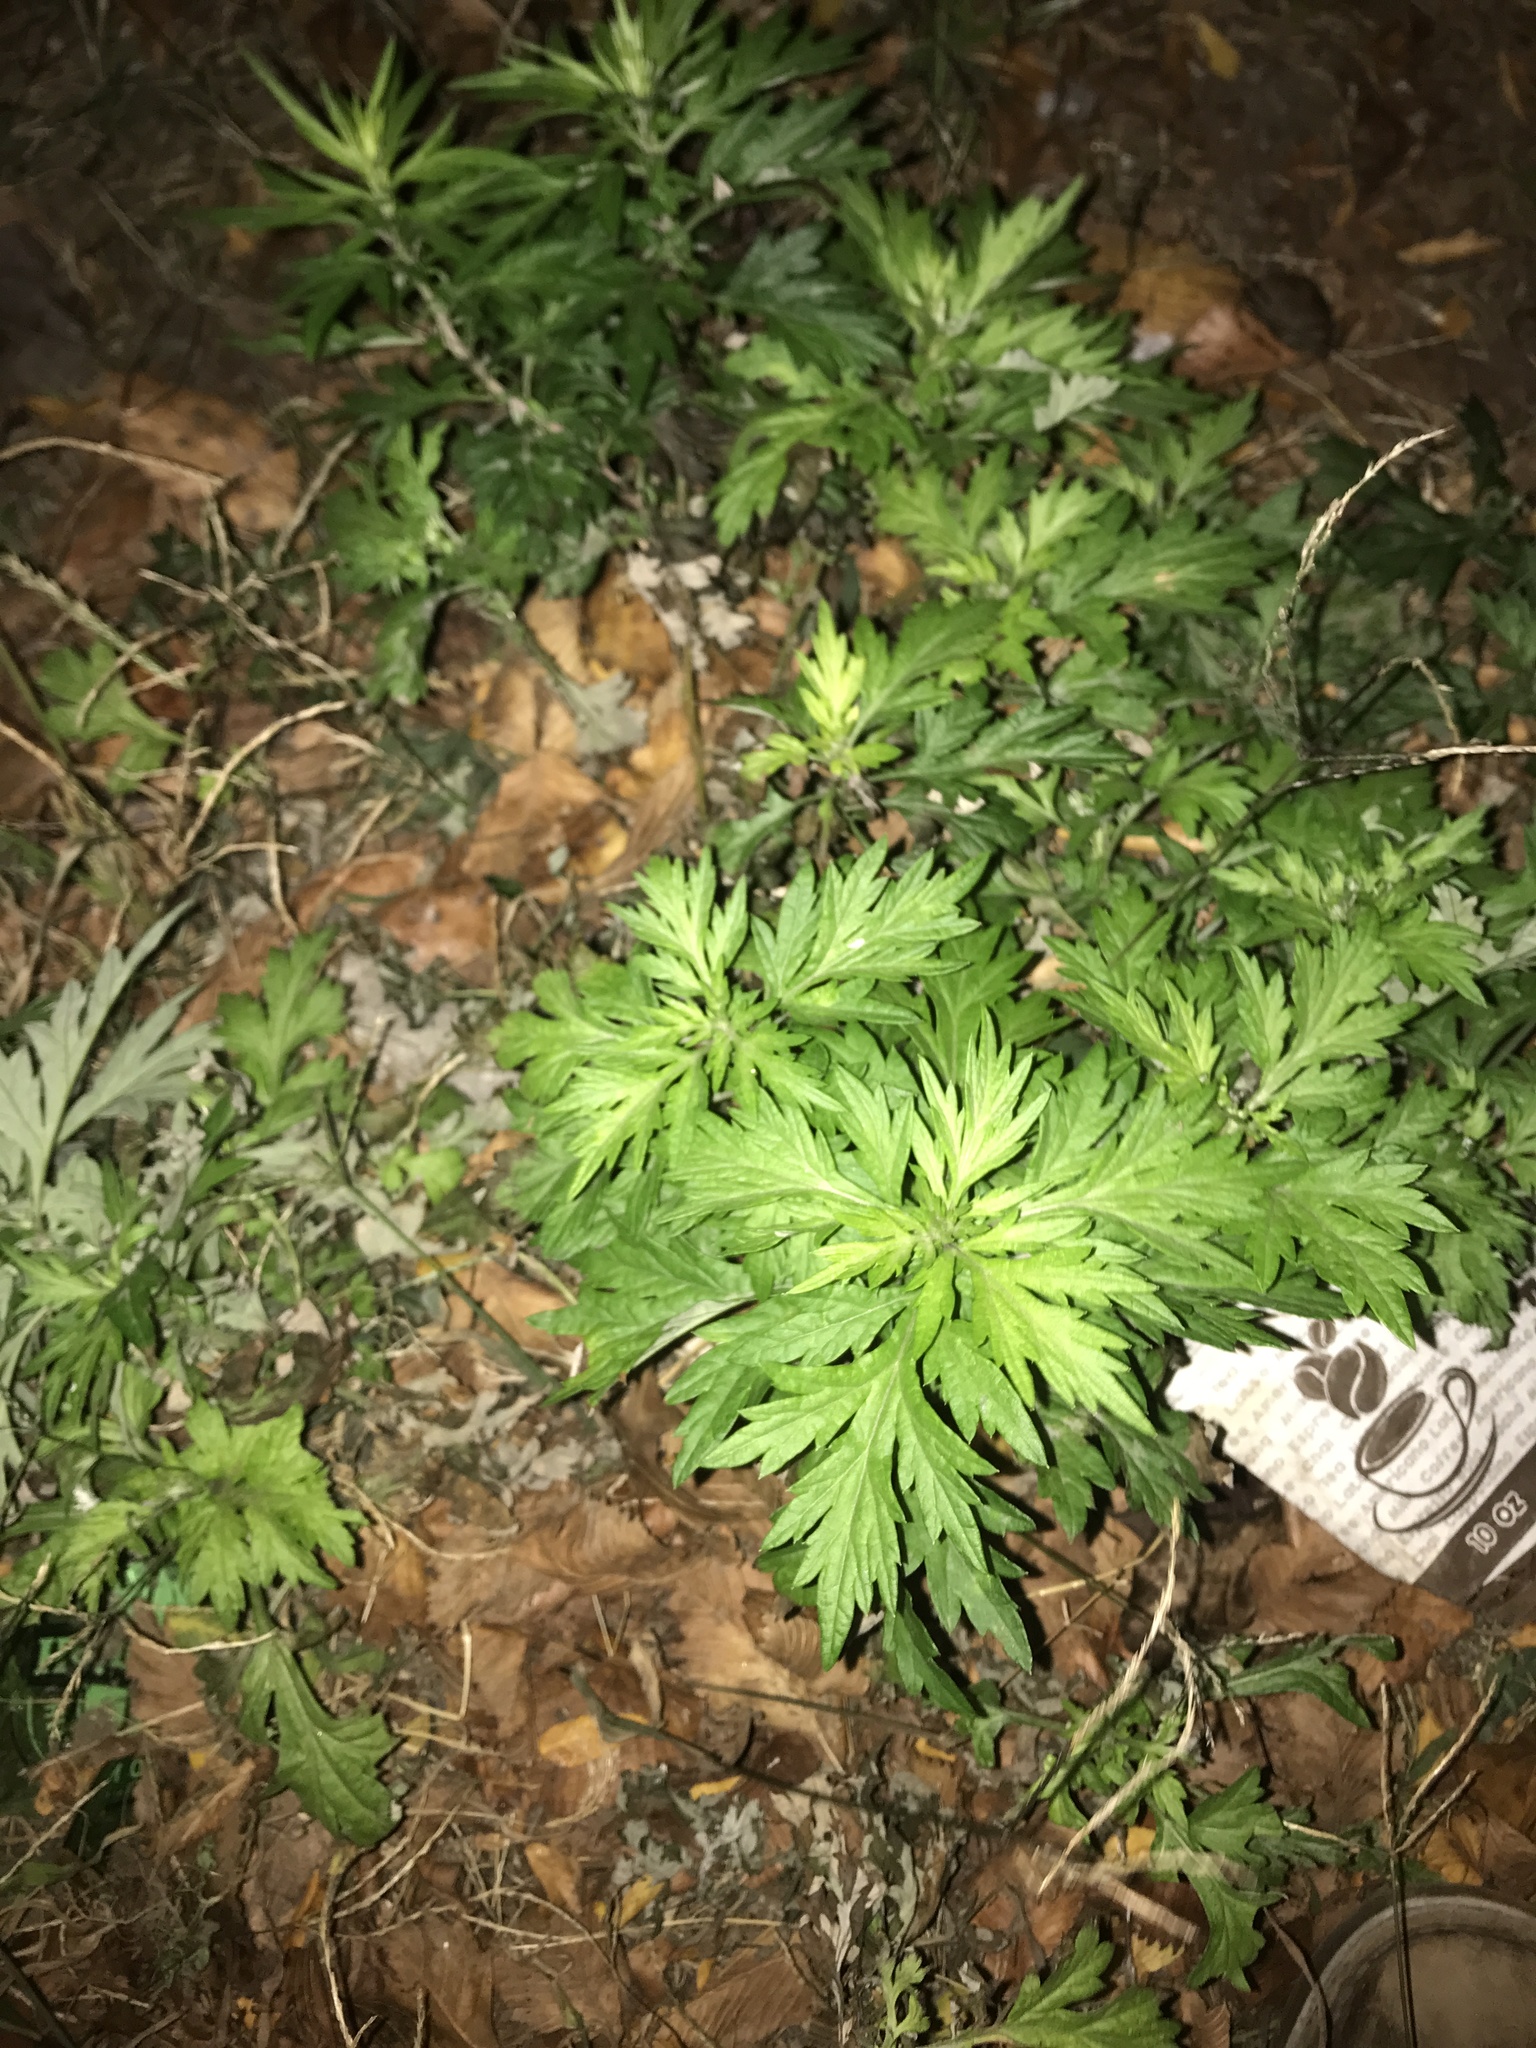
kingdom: Plantae
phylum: Tracheophyta
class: Magnoliopsida
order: Asterales
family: Asteraceae
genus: Artemisia
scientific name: Artemisia vulgaris
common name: Mugwort
